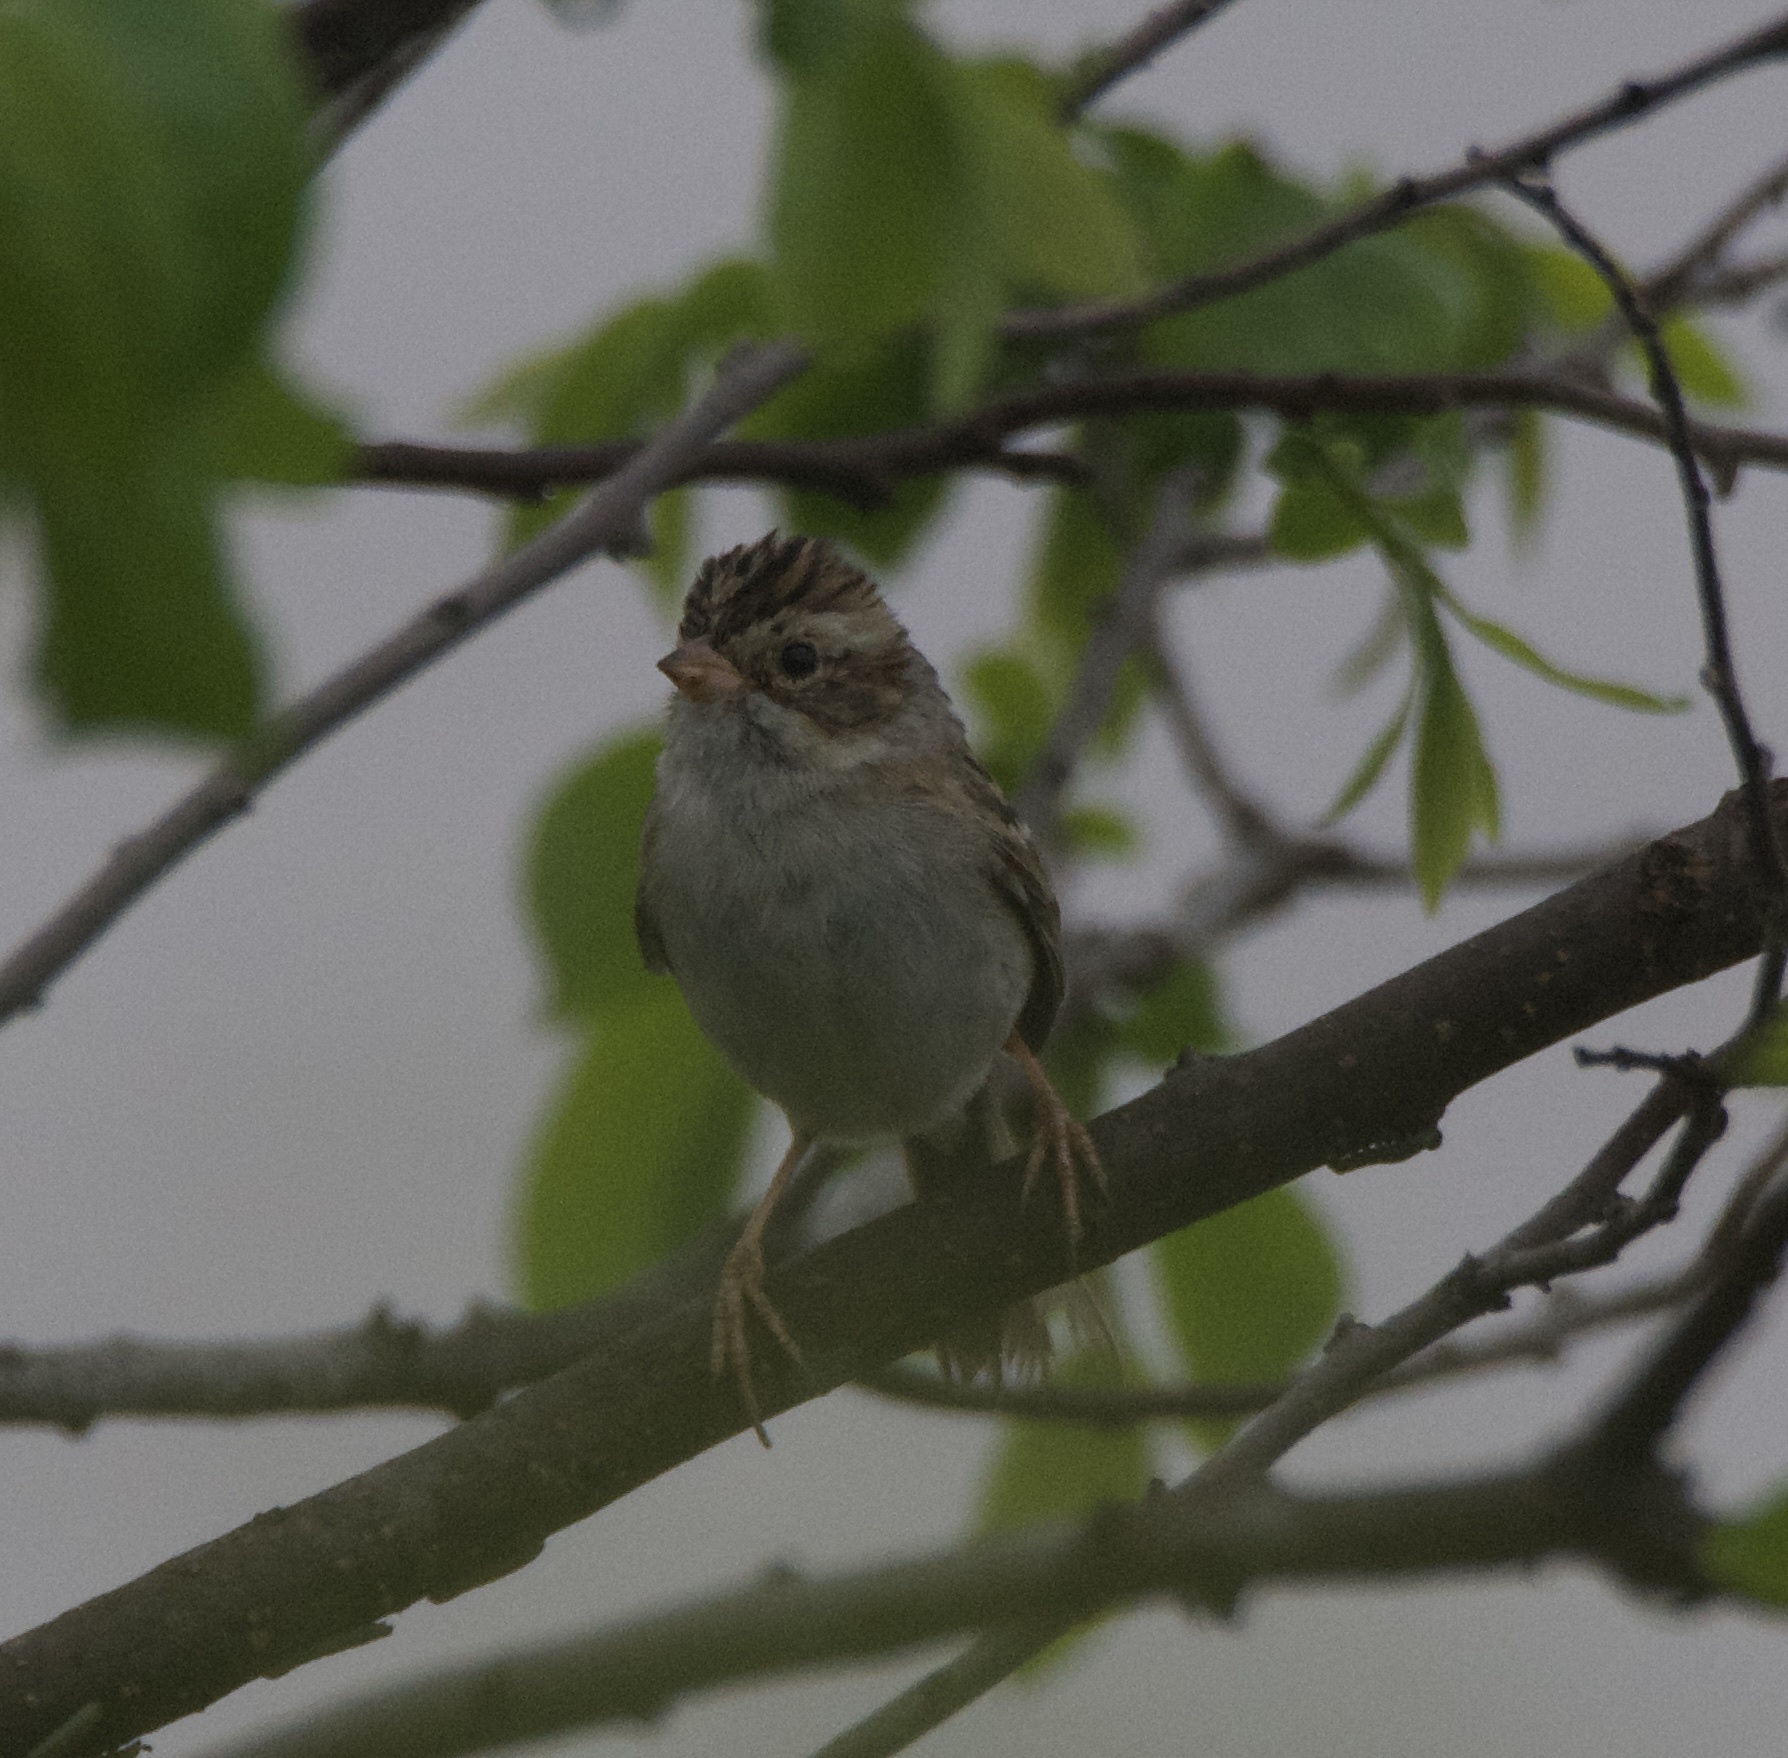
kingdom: Animalia
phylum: Chordata
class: Aves
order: Passeriformes
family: Passerellidae
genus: Spizella
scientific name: Spizella pallida
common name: Clay-colored sparrow
